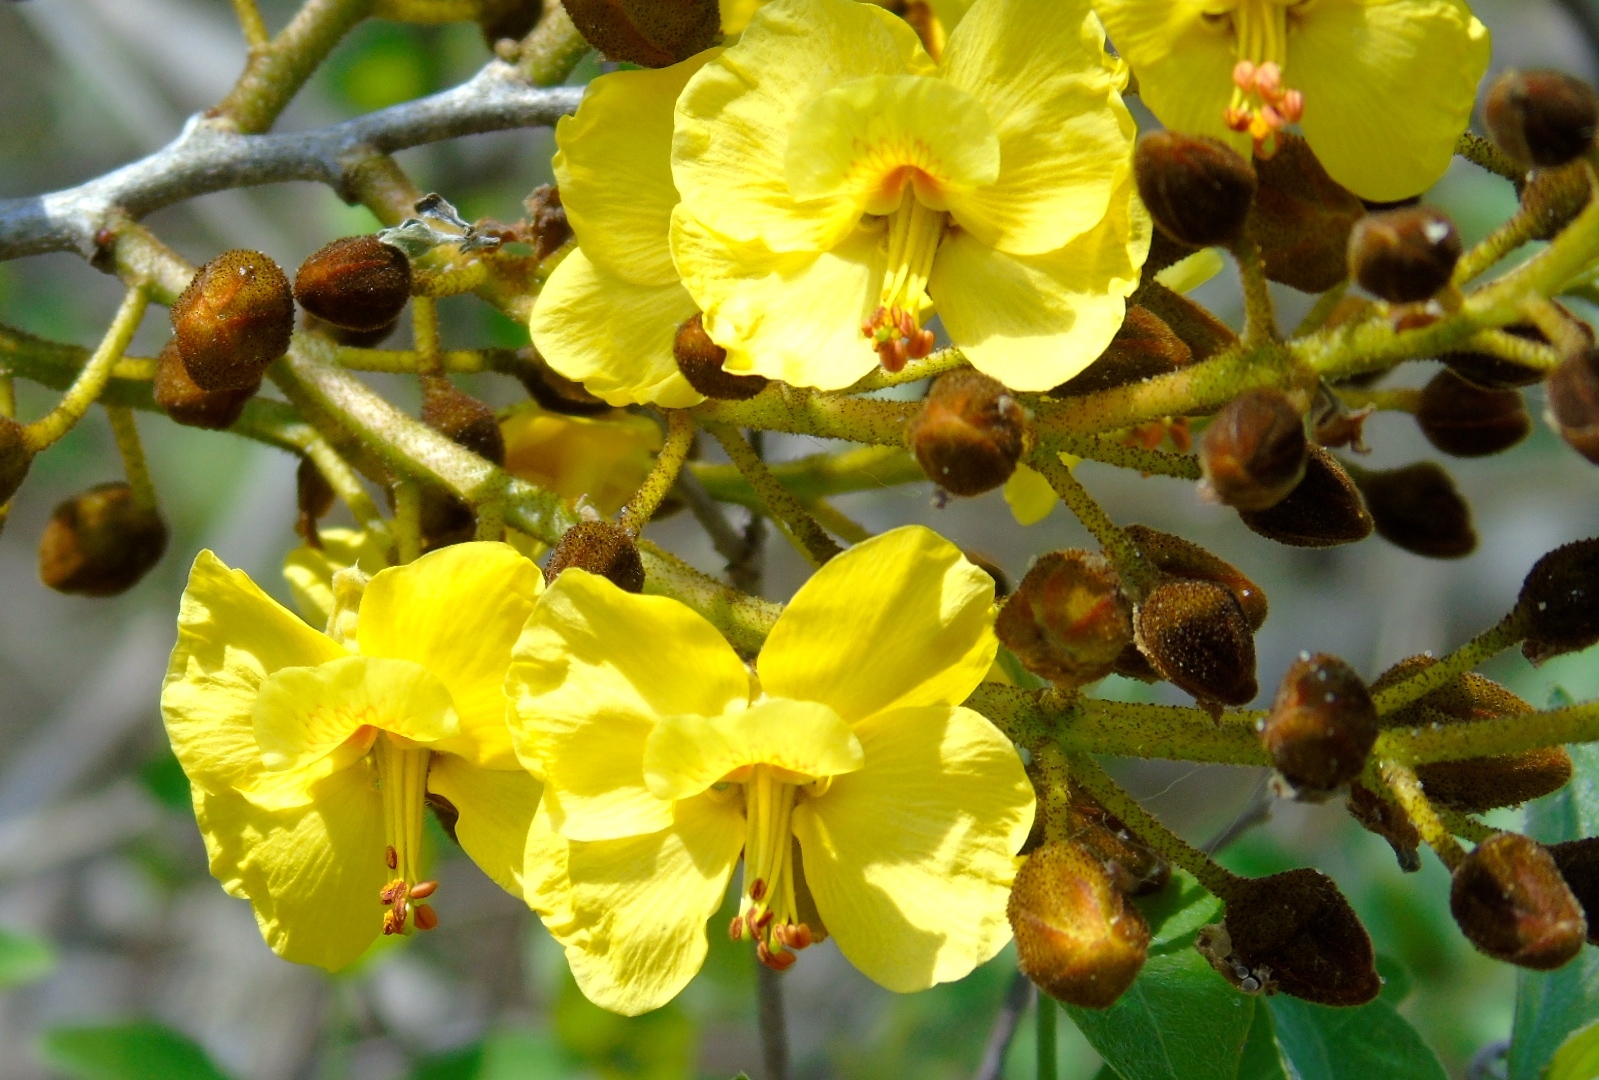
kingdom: Plantae
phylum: Tracheophyta
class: Magnoliopsida
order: Fabales
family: Fabaceae
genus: Cenostigma
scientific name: Cenostigma eriostachys
